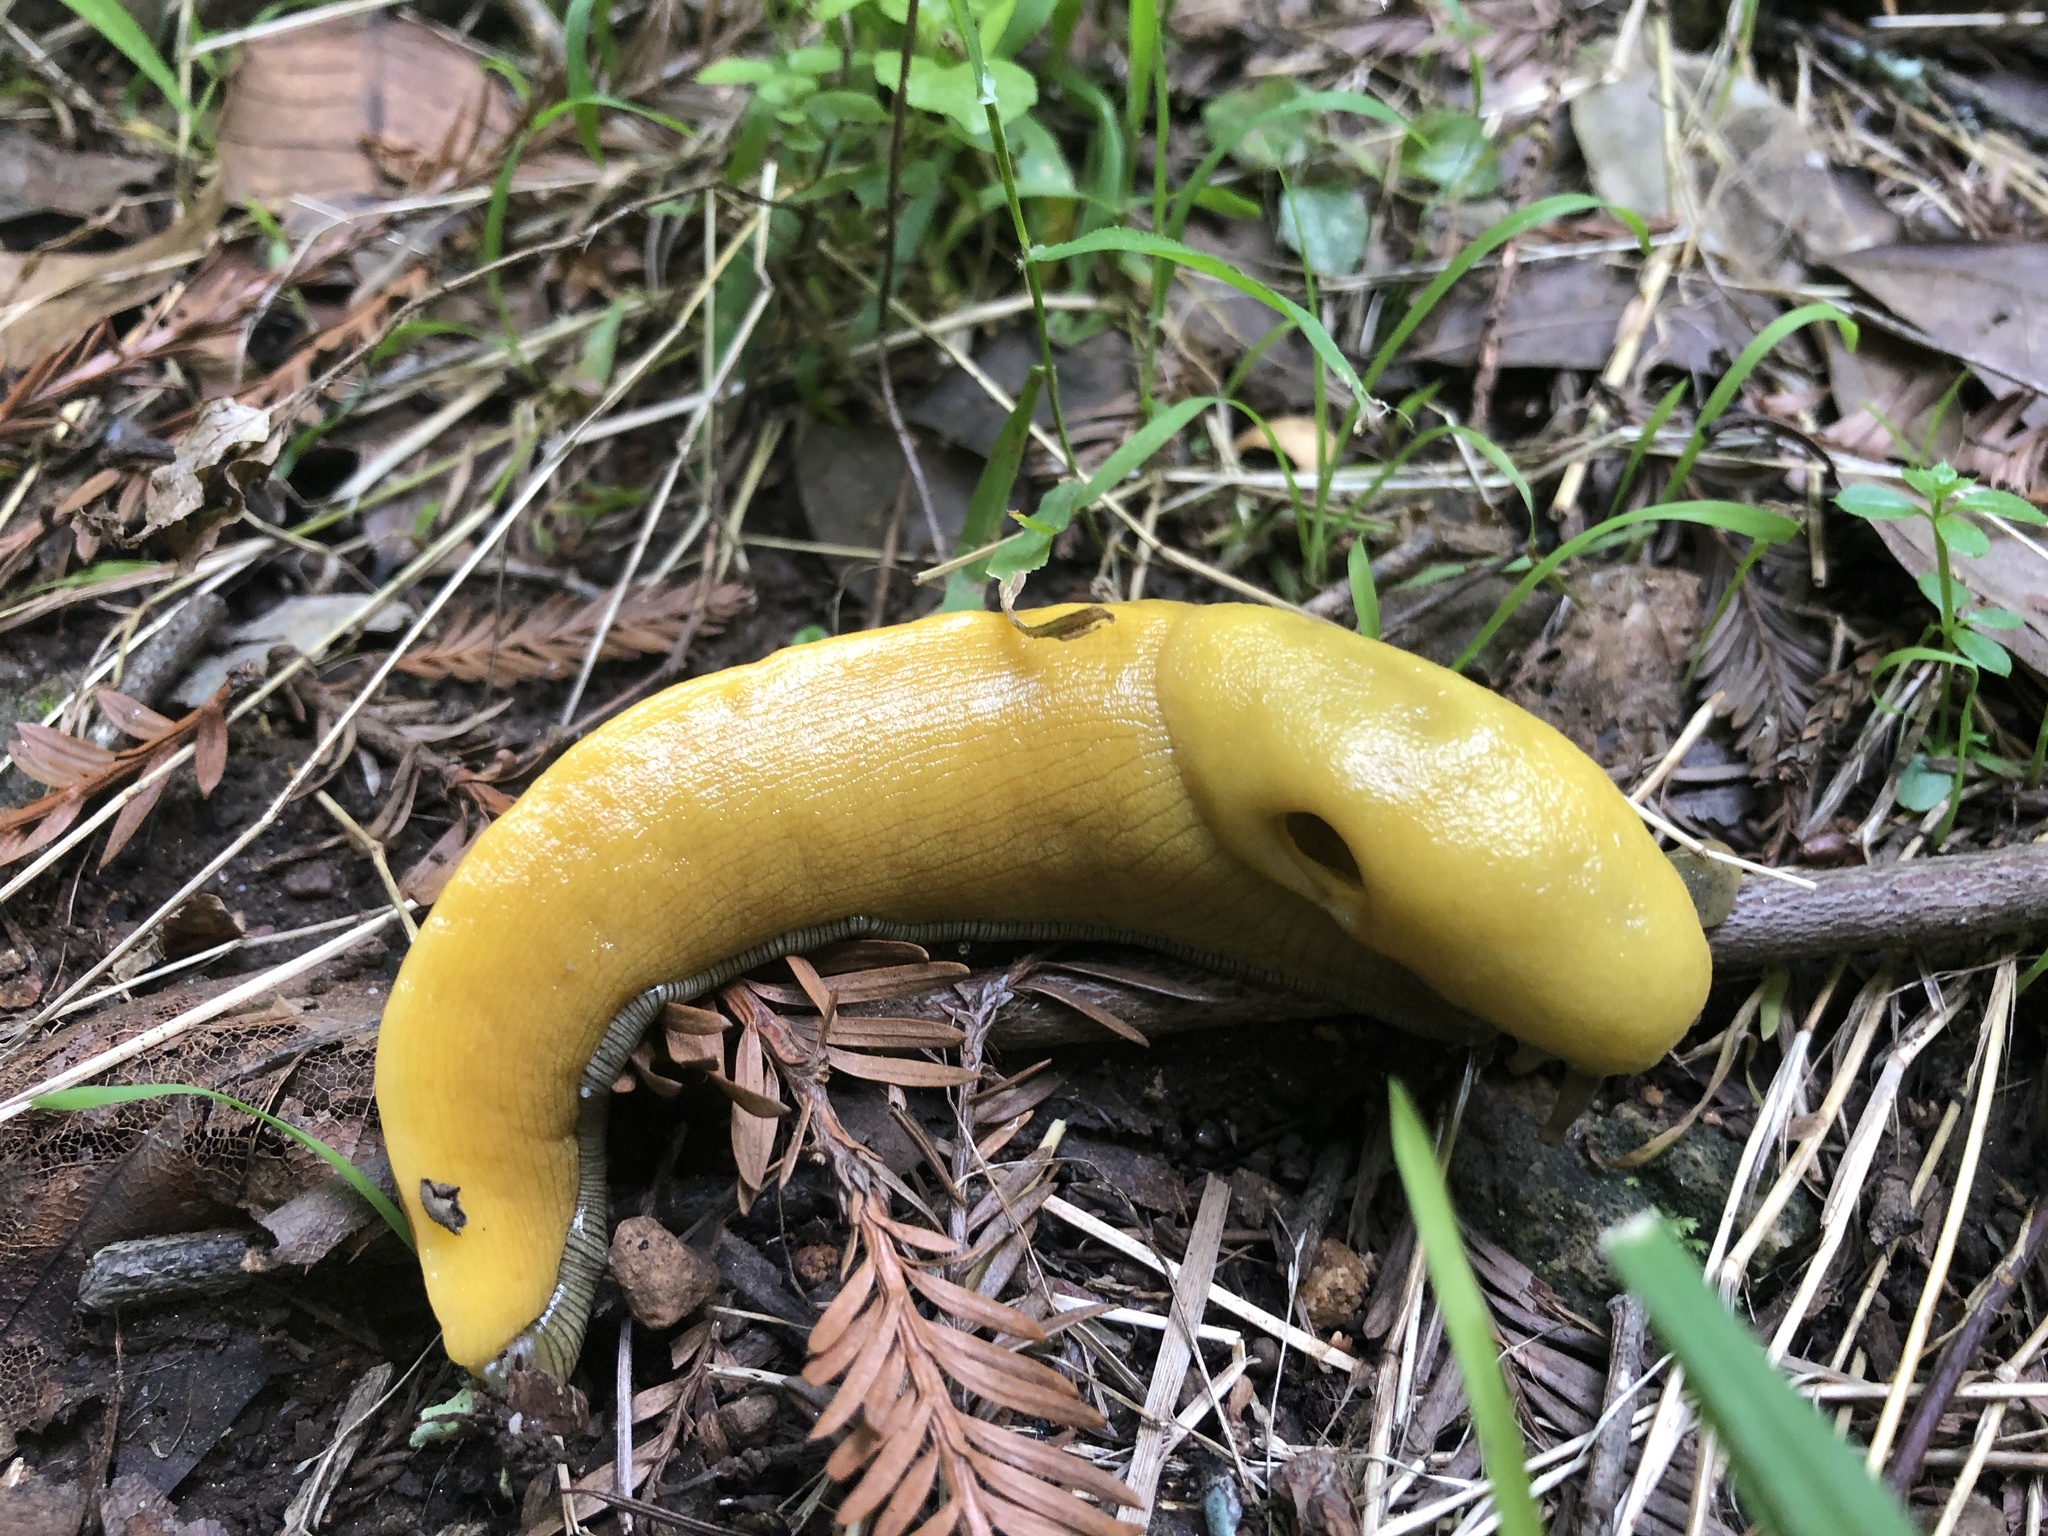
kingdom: Animalia
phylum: Mollusca
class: Gastropoda
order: Stylommatophora
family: Ariolimacidae
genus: Ariolimax
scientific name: Ariolimax dolichophallus
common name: Slender banana slug
